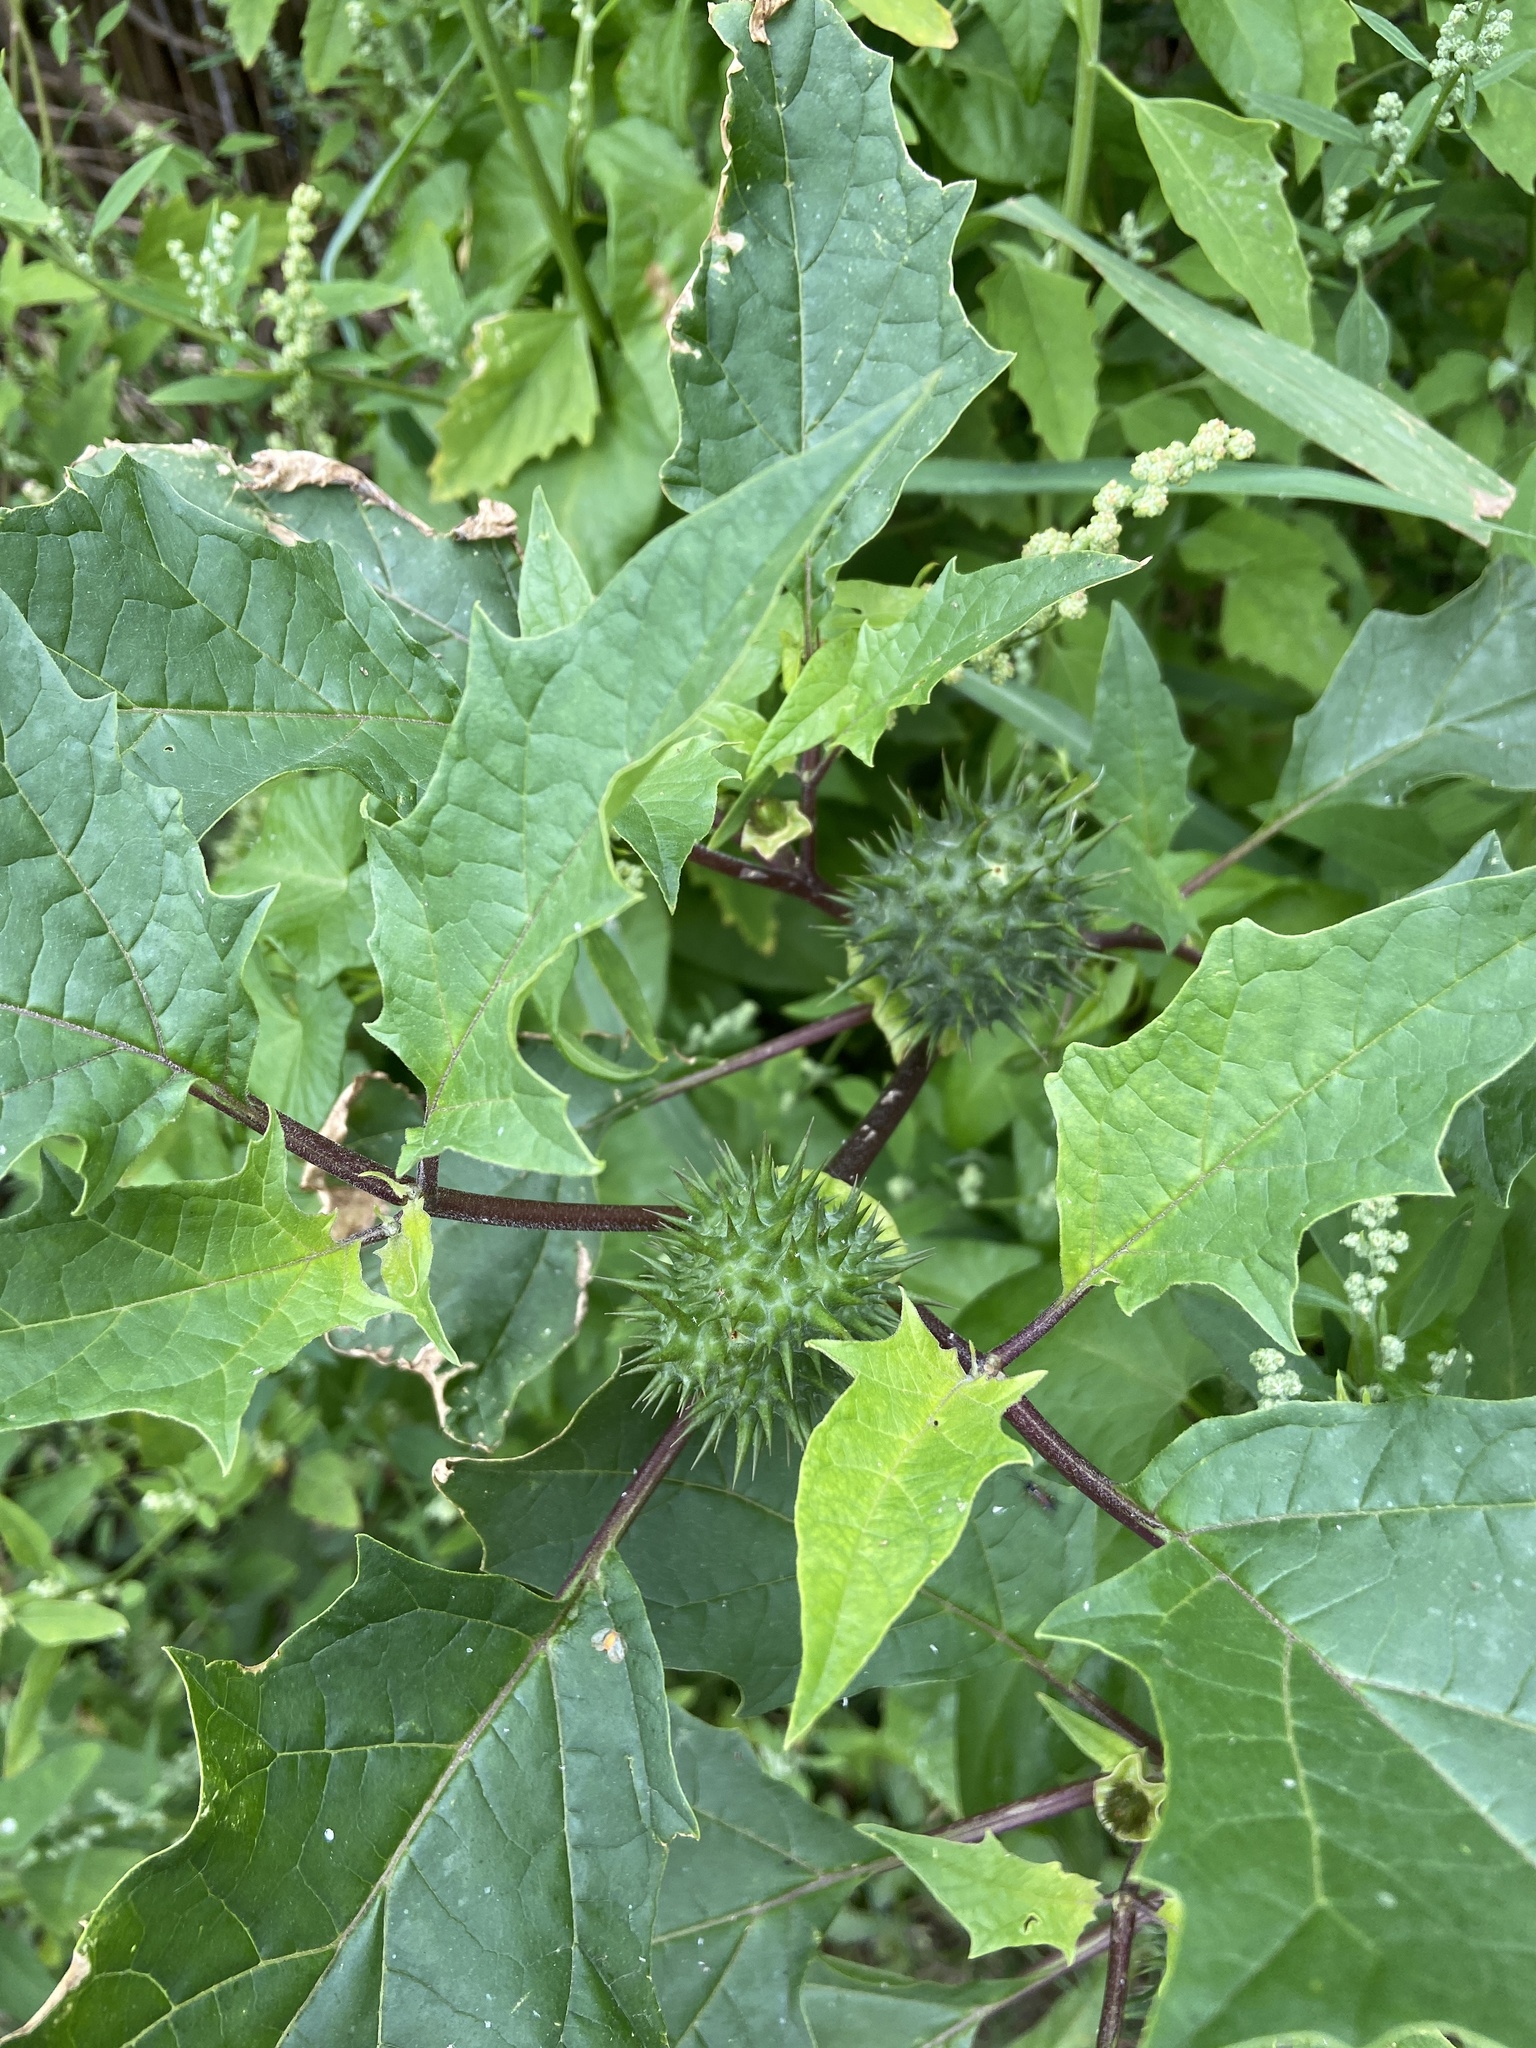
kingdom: Plantae
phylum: Tracheophyta
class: Magnoliopsida
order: Solanales
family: Solanaceae
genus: Datura
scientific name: Datura stramonium
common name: Thorn-apple
